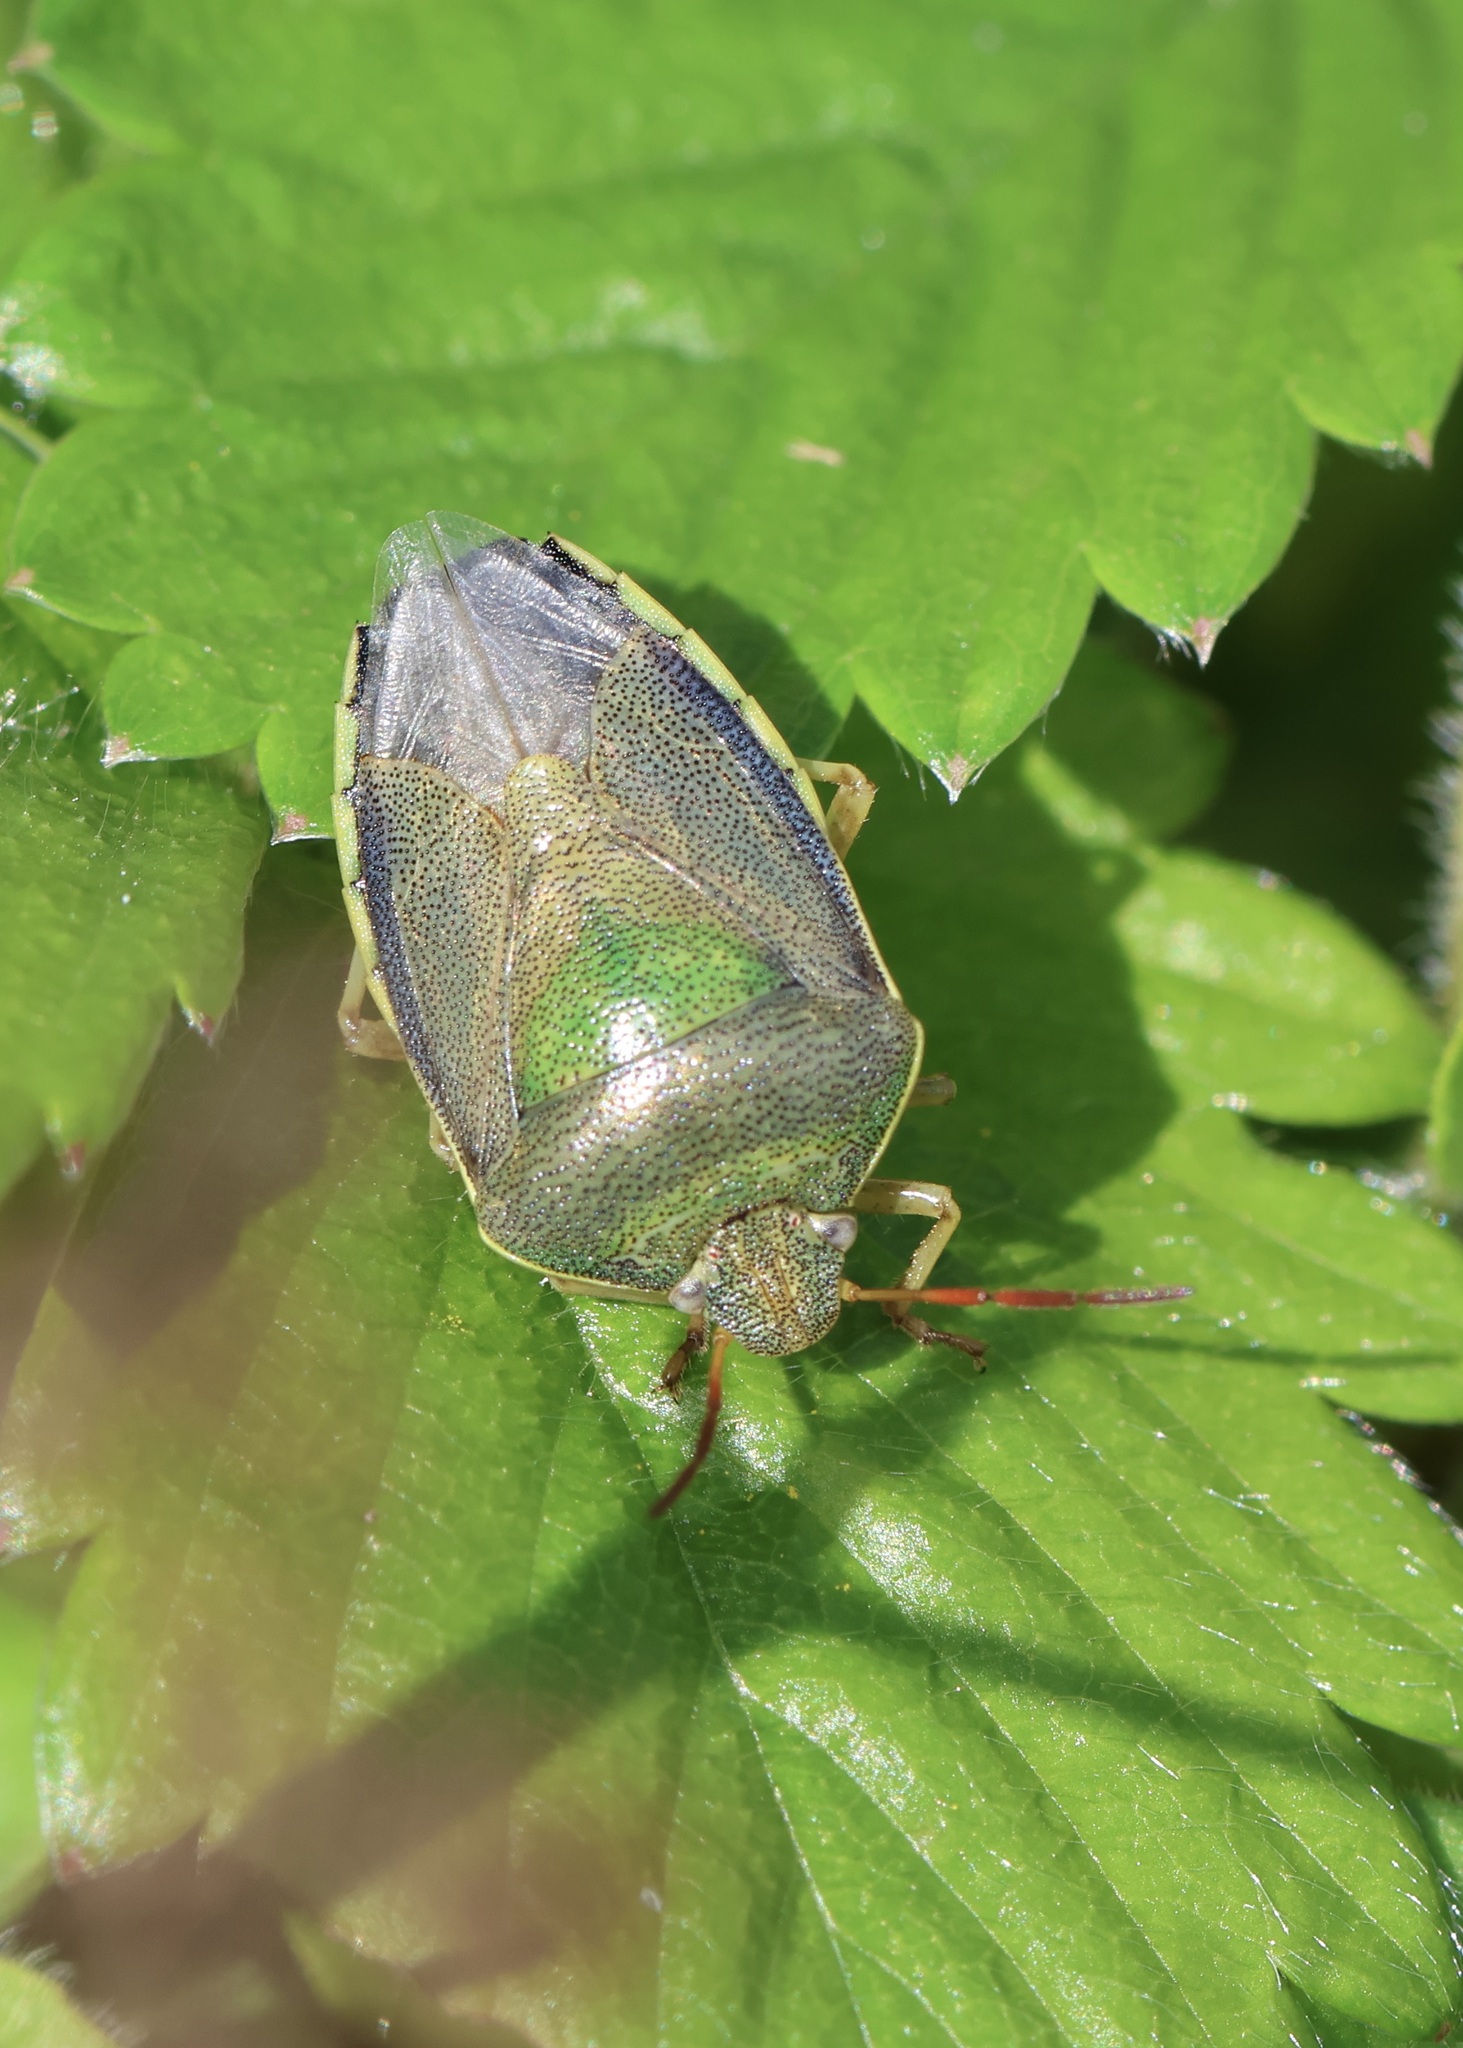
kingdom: Animalia
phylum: Arthropoda
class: Insecta
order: Hemiptera
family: Pentatomidae
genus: Piezodorus
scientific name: Piezodorus lituratus
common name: Stink bug
